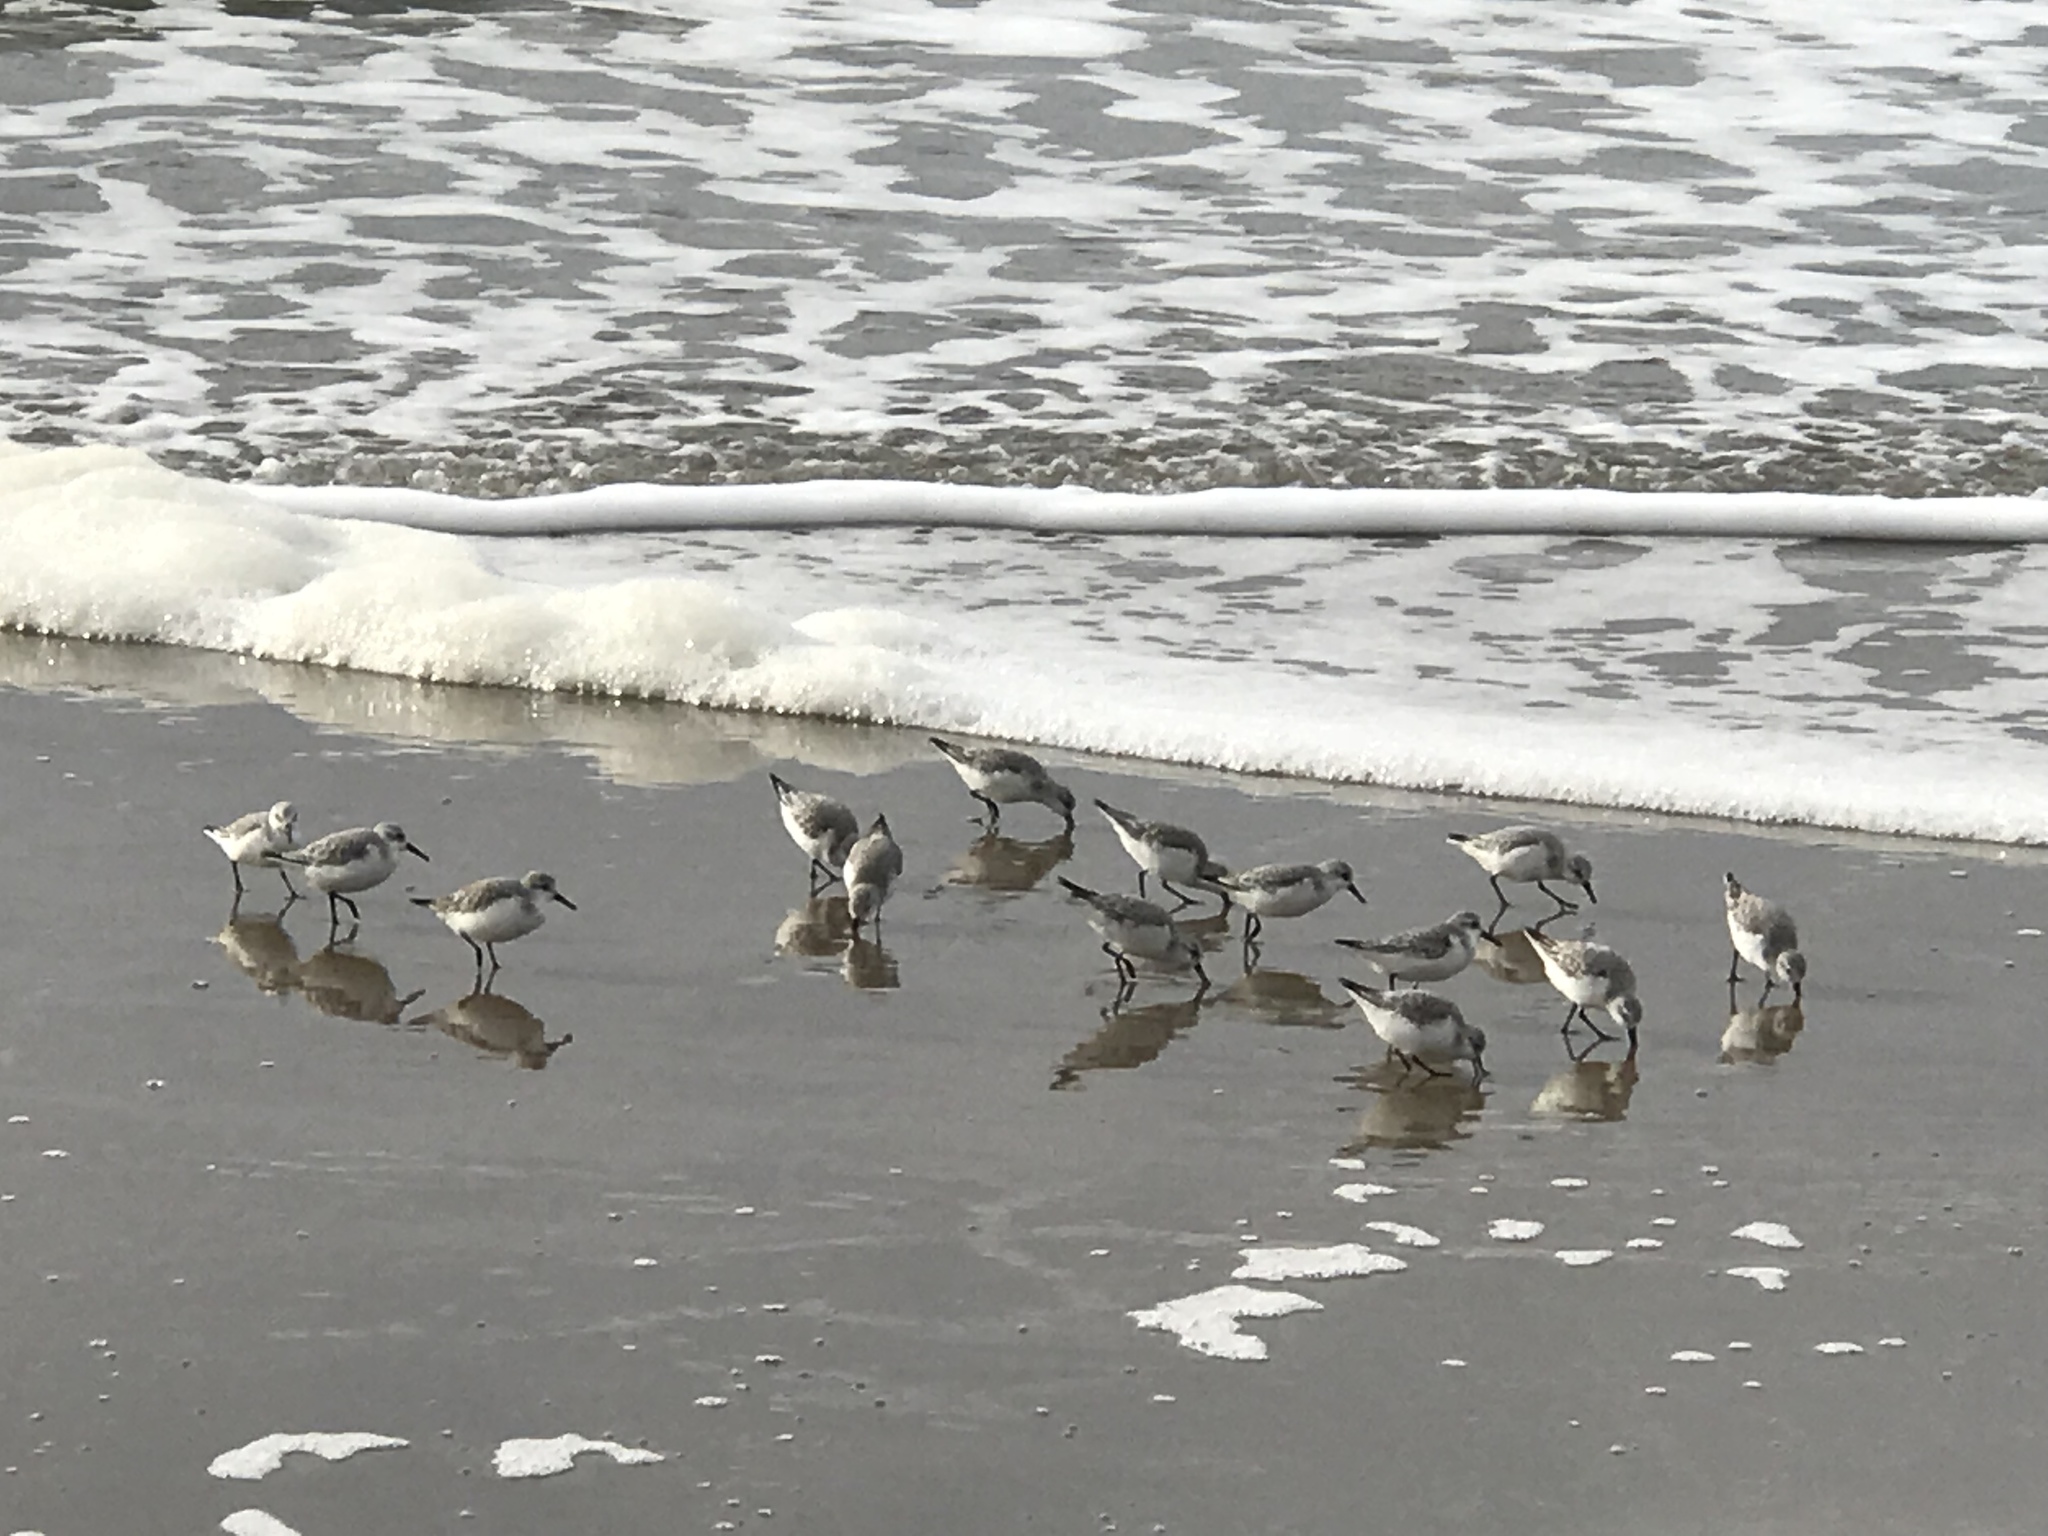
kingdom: Animalia
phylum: Chordata
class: Aves
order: Charadriiformes
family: Scolopacidae
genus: Calidris
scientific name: Calidris alba
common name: Sanderling
